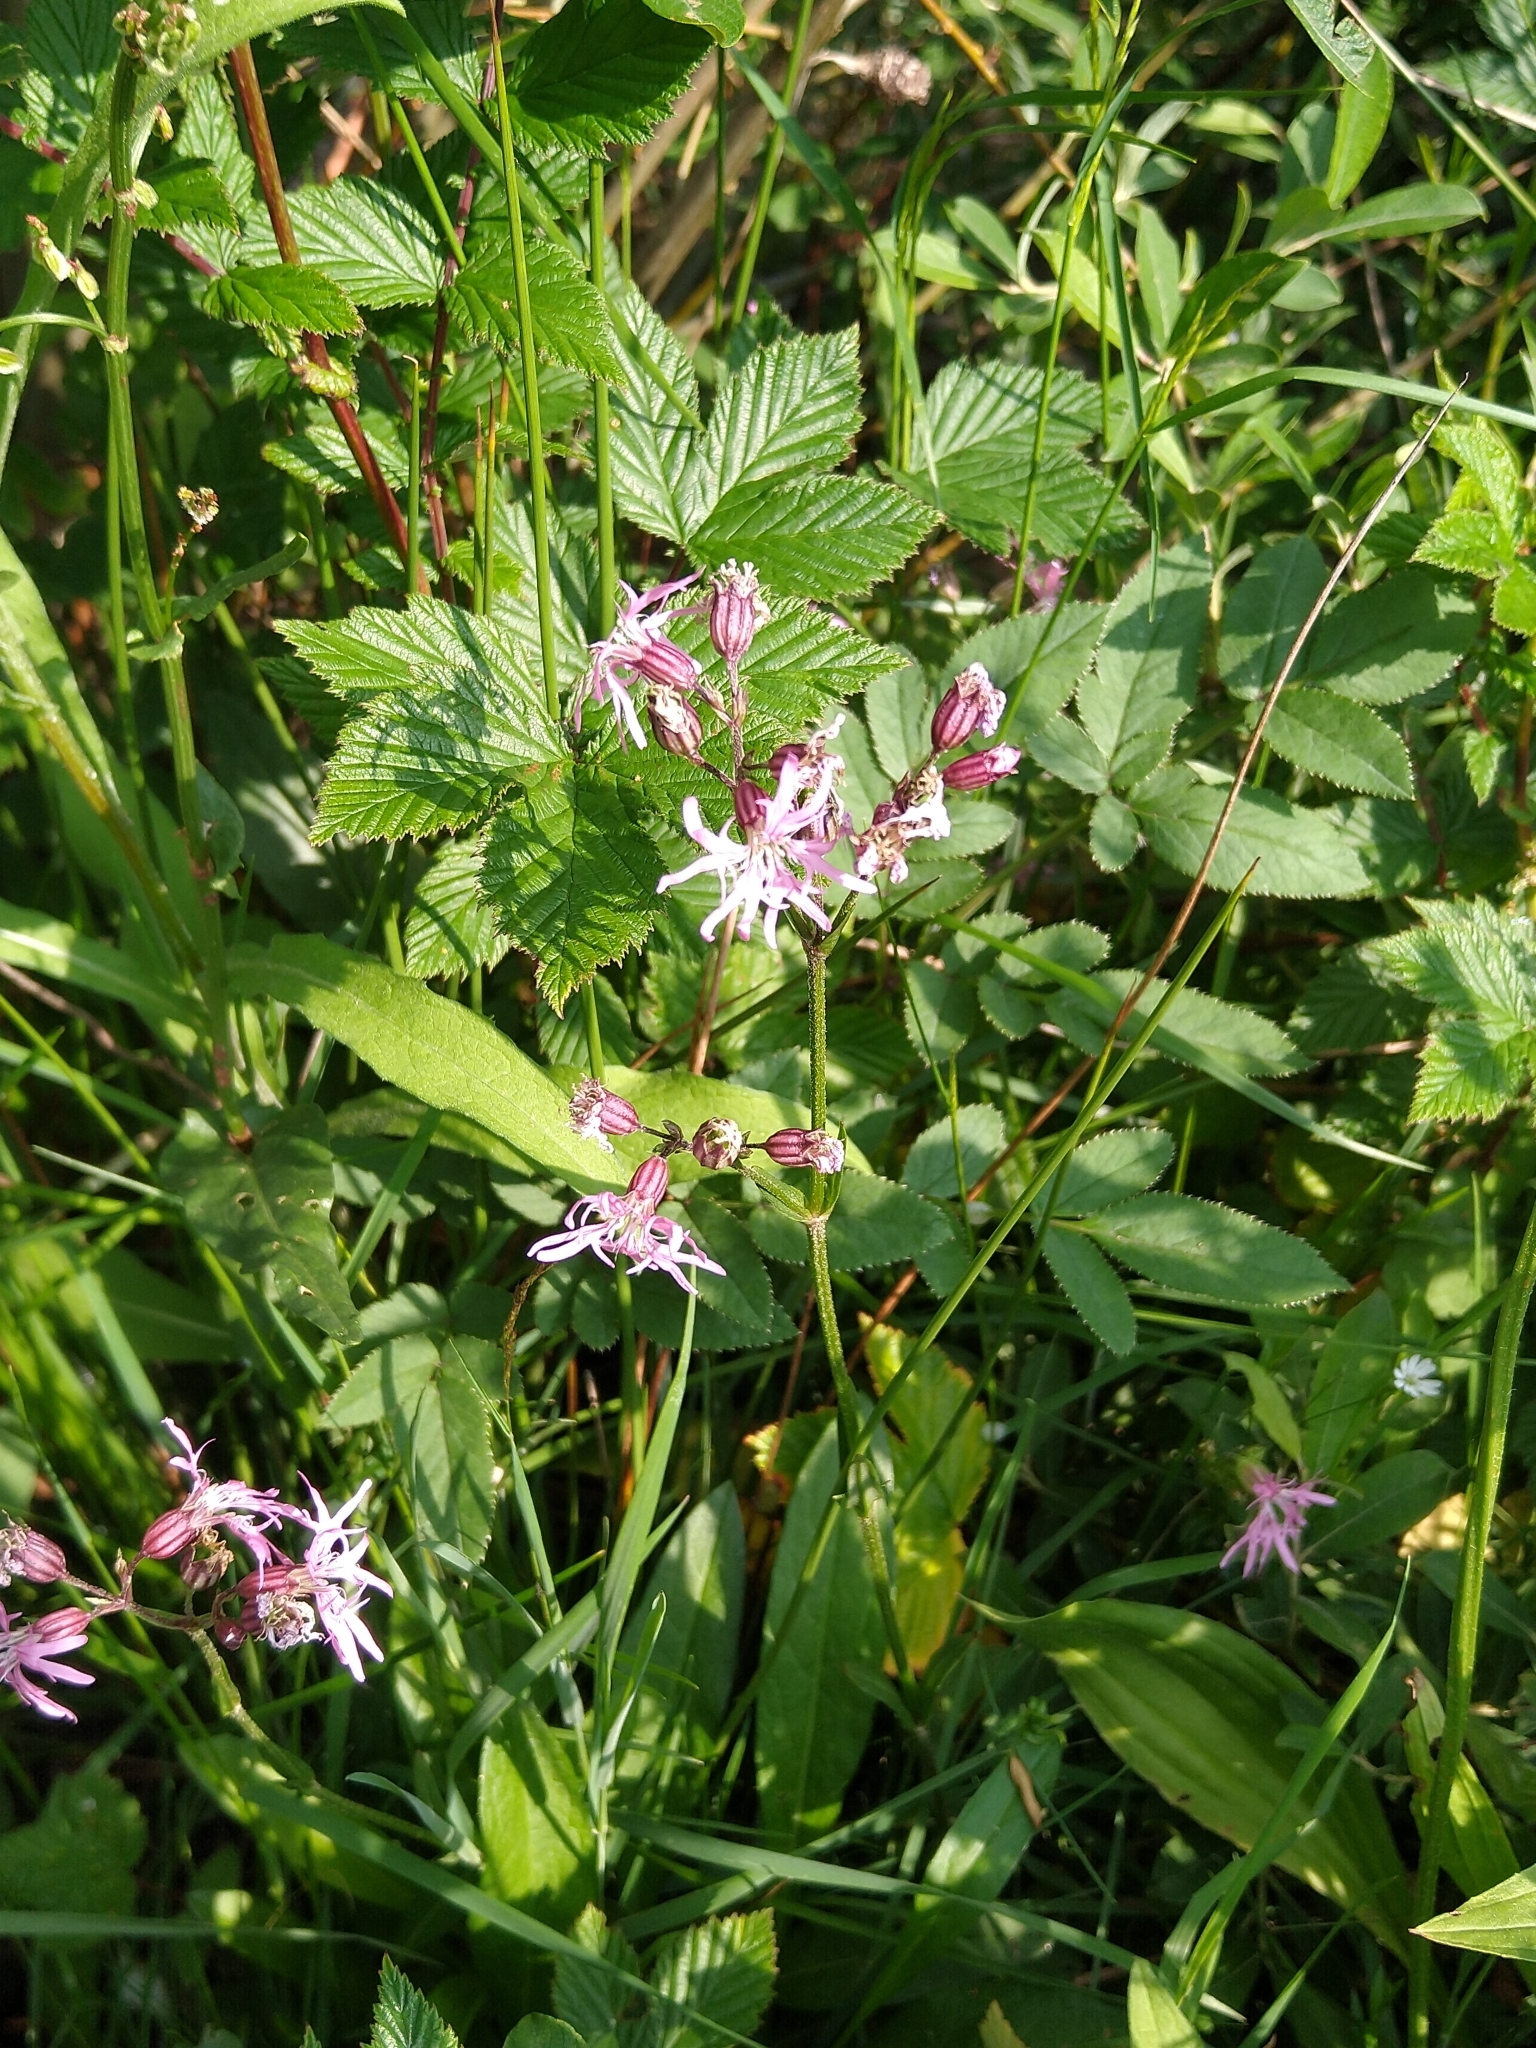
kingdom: Plantae
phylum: Tracheophyta
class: Magnoliopsida
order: Caryophyllales
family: Caryophyllaceae
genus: Silene
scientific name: Silene flos-cuculi
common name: Ragged-robin
